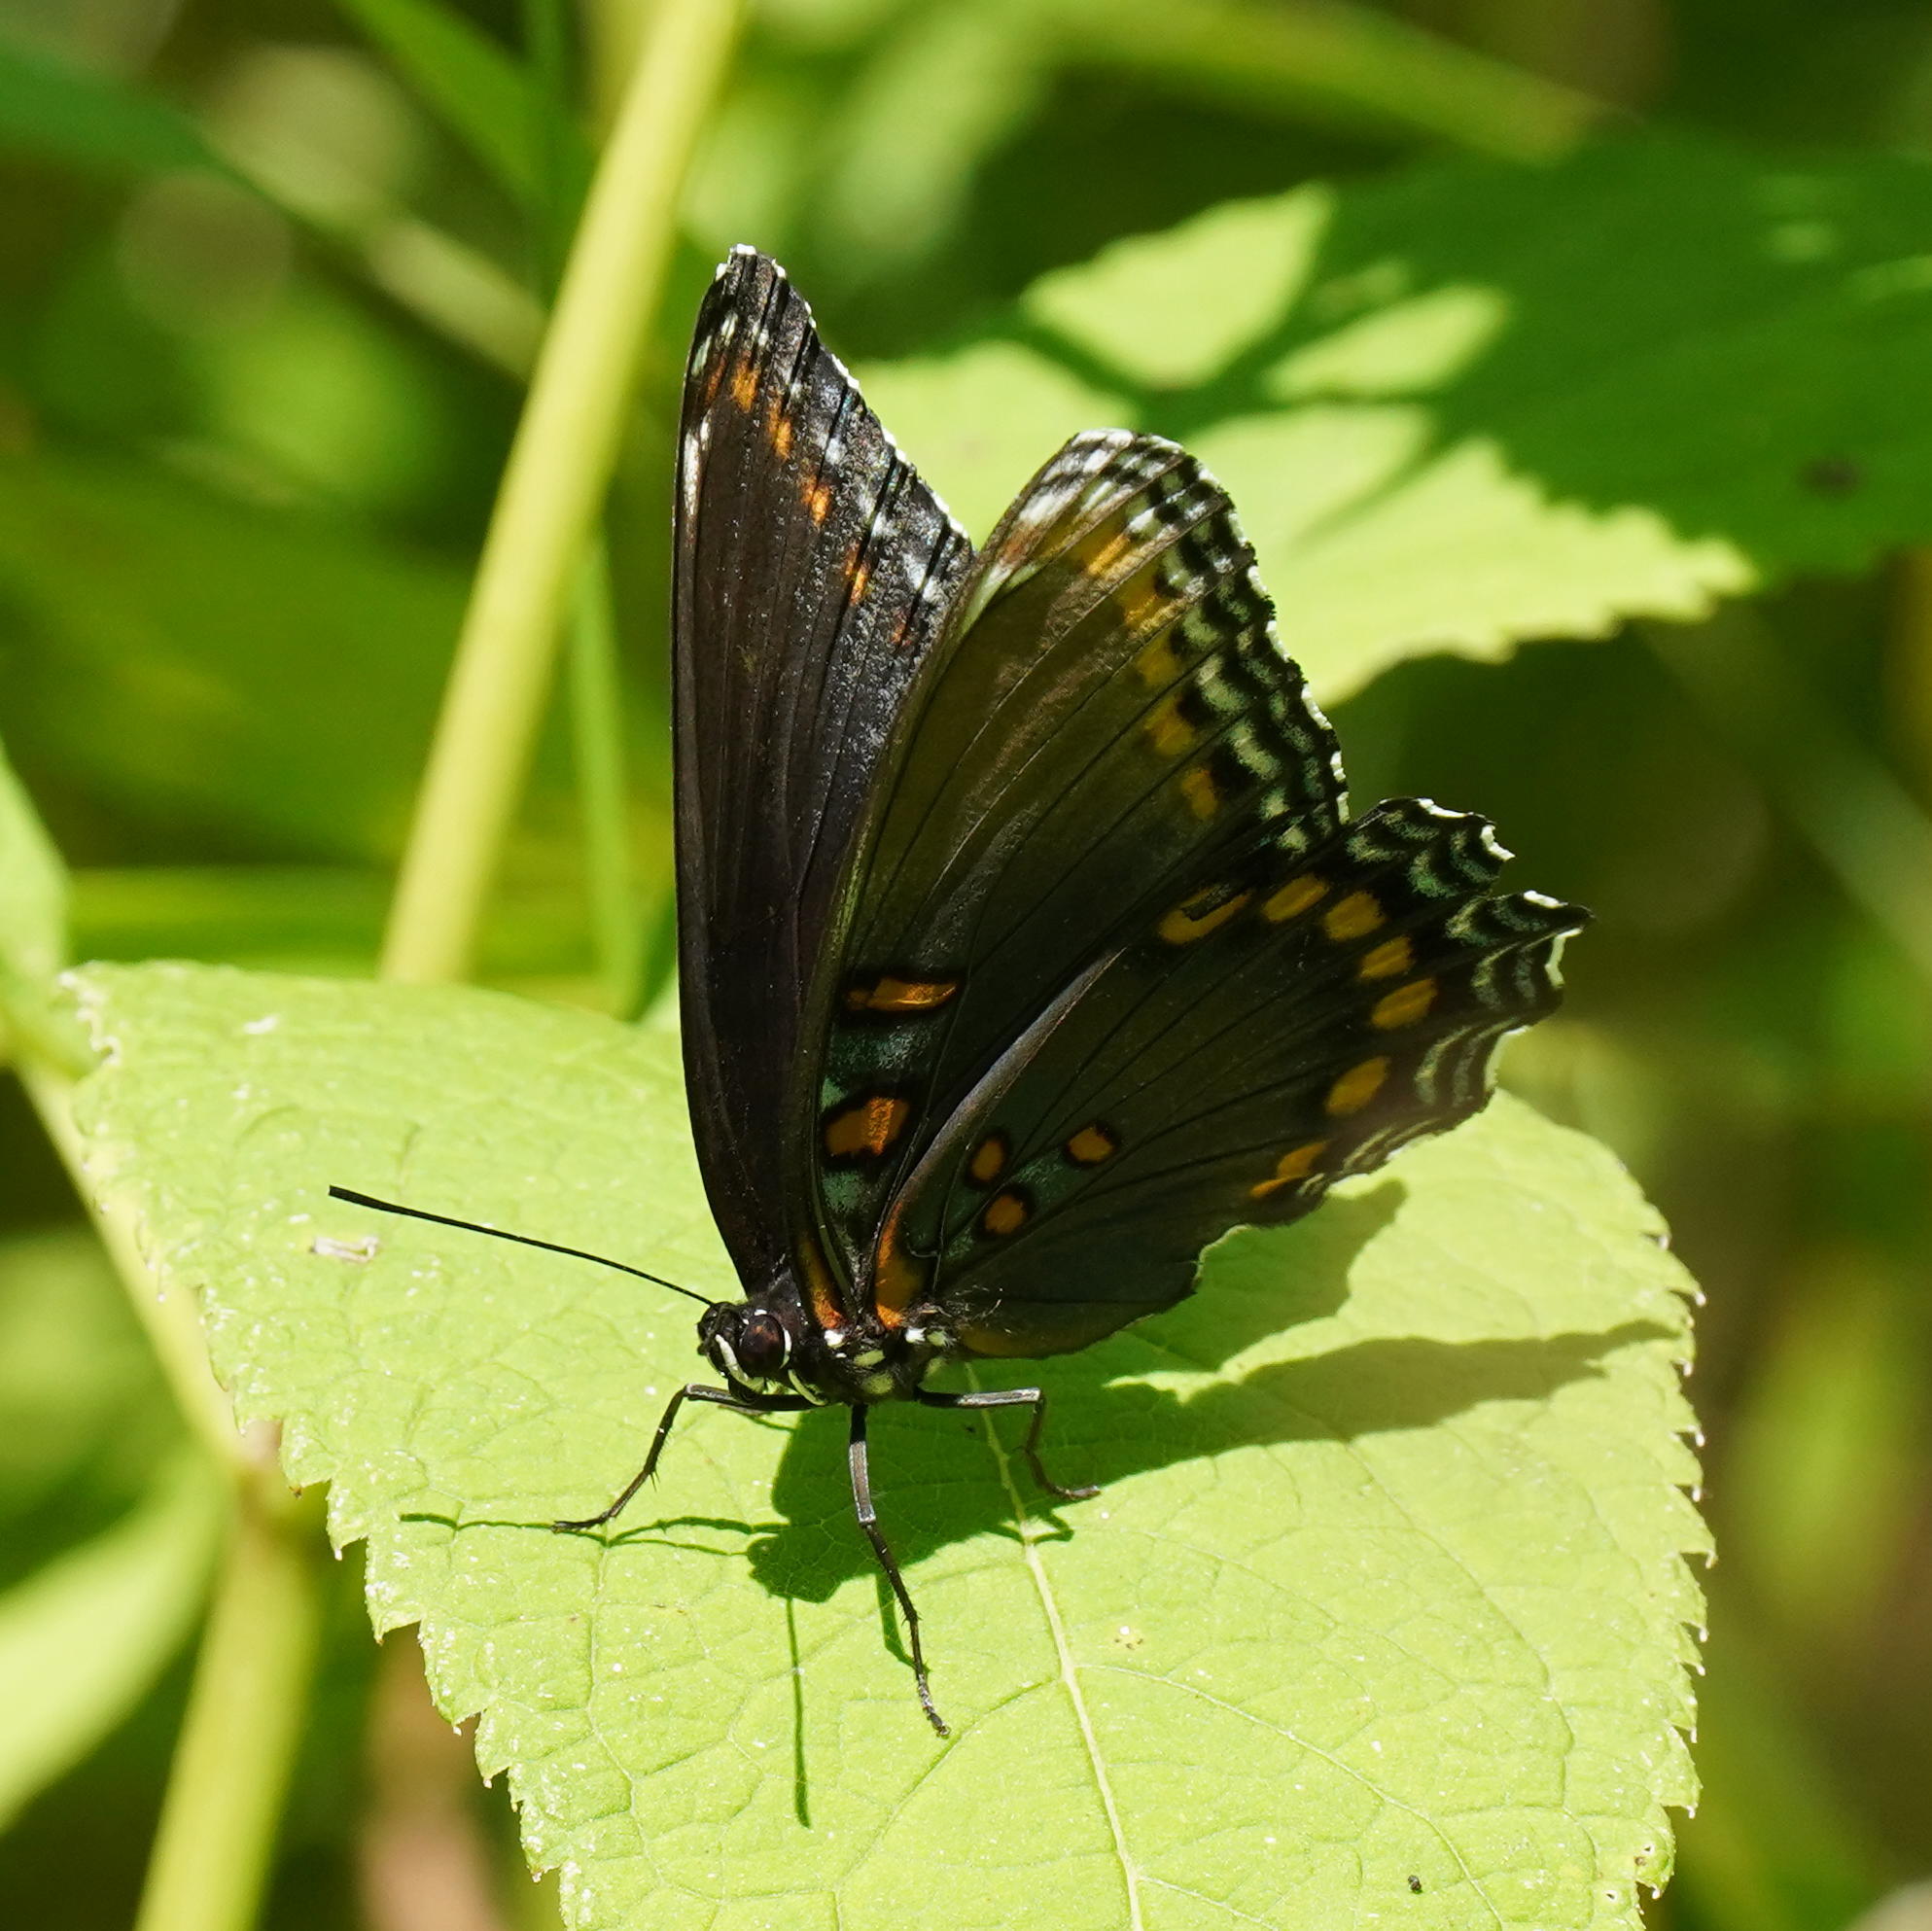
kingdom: Animalia
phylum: Arthropoda
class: Insecta
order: Lepidoptera
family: Nymphalidae
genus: Limenitis
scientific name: Limenitis astyanax
